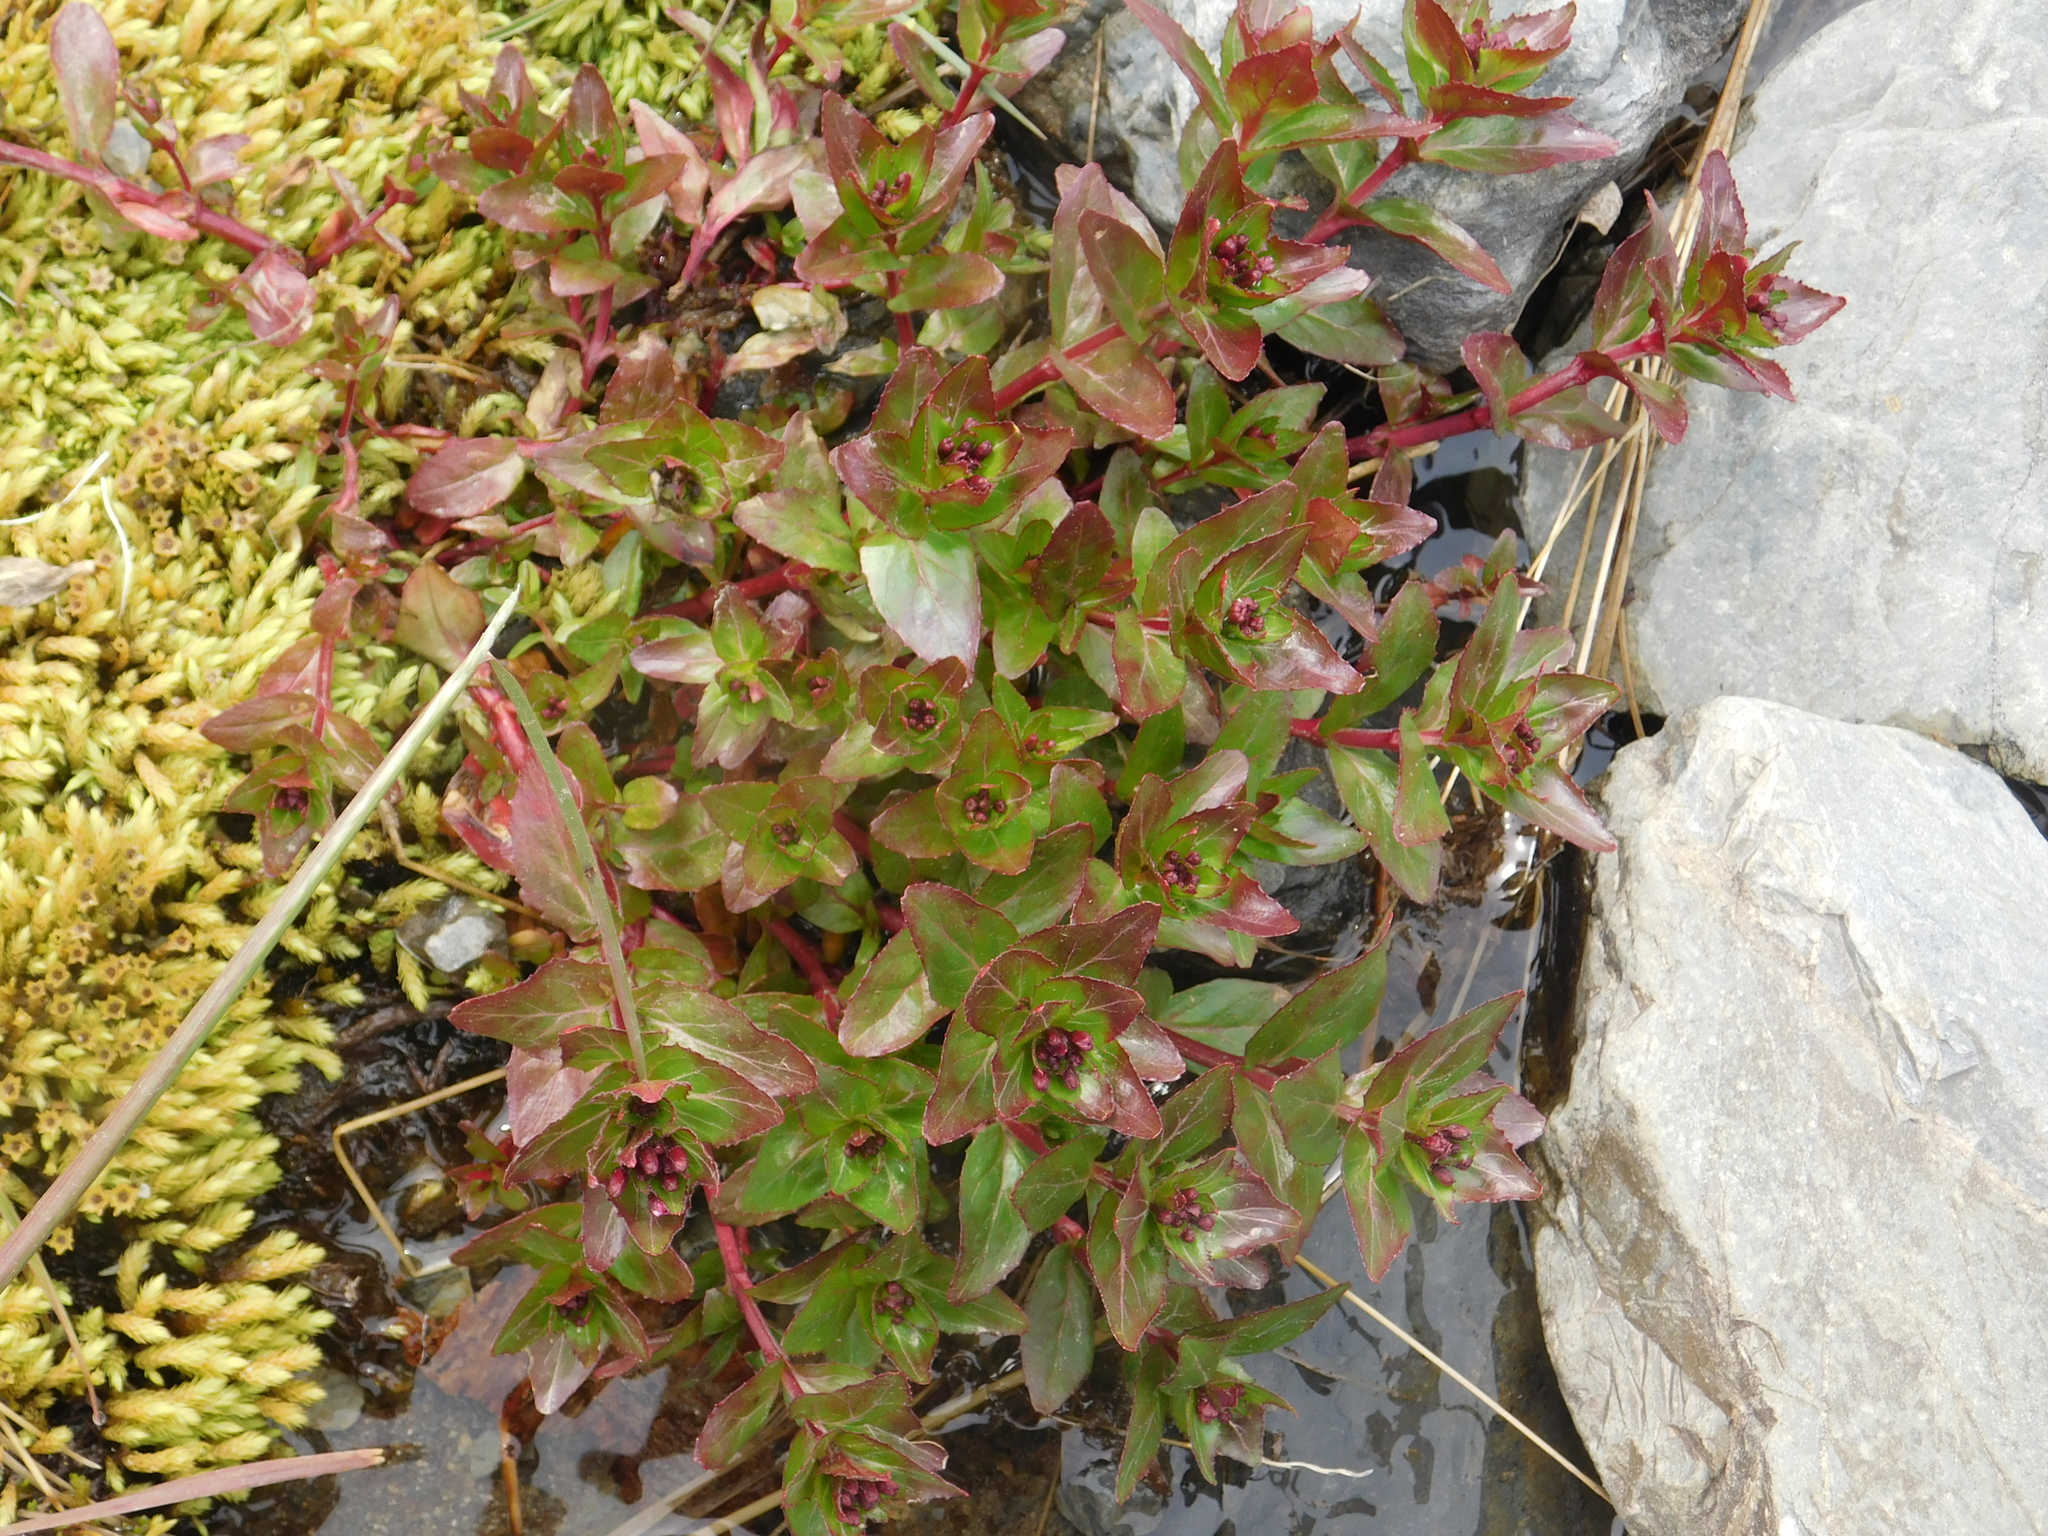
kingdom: Plantae
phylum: Tracheophyta
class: Magnoliopsida
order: Myrtales
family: Onagraceae
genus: Epilobium
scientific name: Epilobium australe
